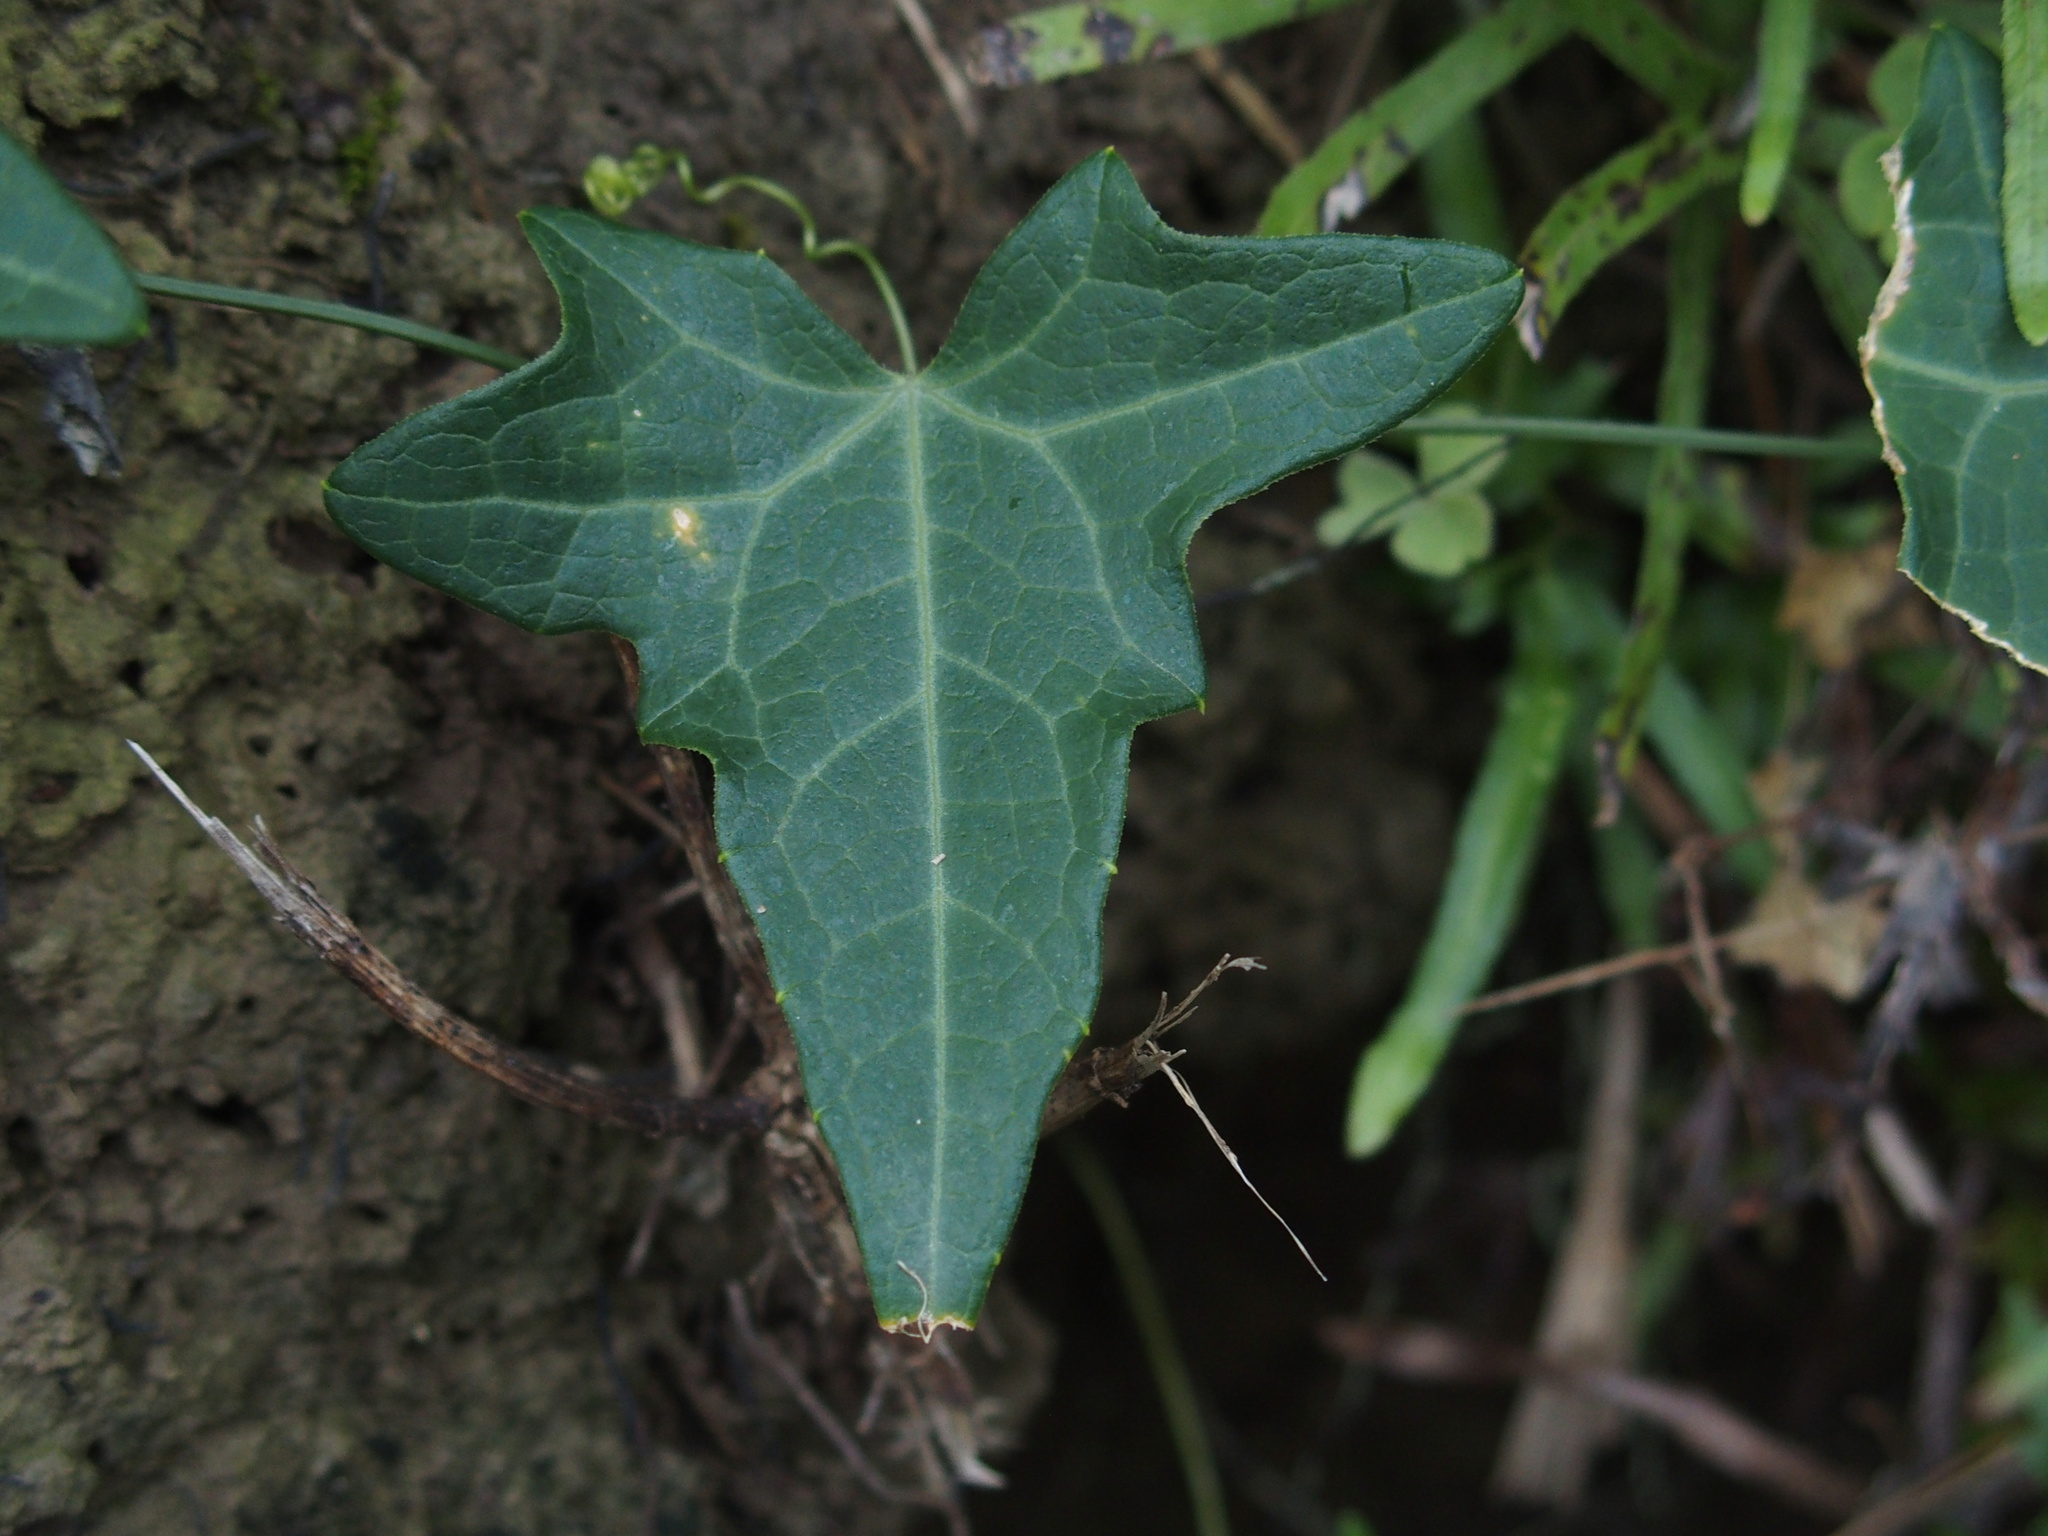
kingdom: Plantae
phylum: Tracheophyta
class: Magnoliopsida
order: Cucurbitales
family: Cucurbitaceae
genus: Solena
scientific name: Solena amplexicaulis
